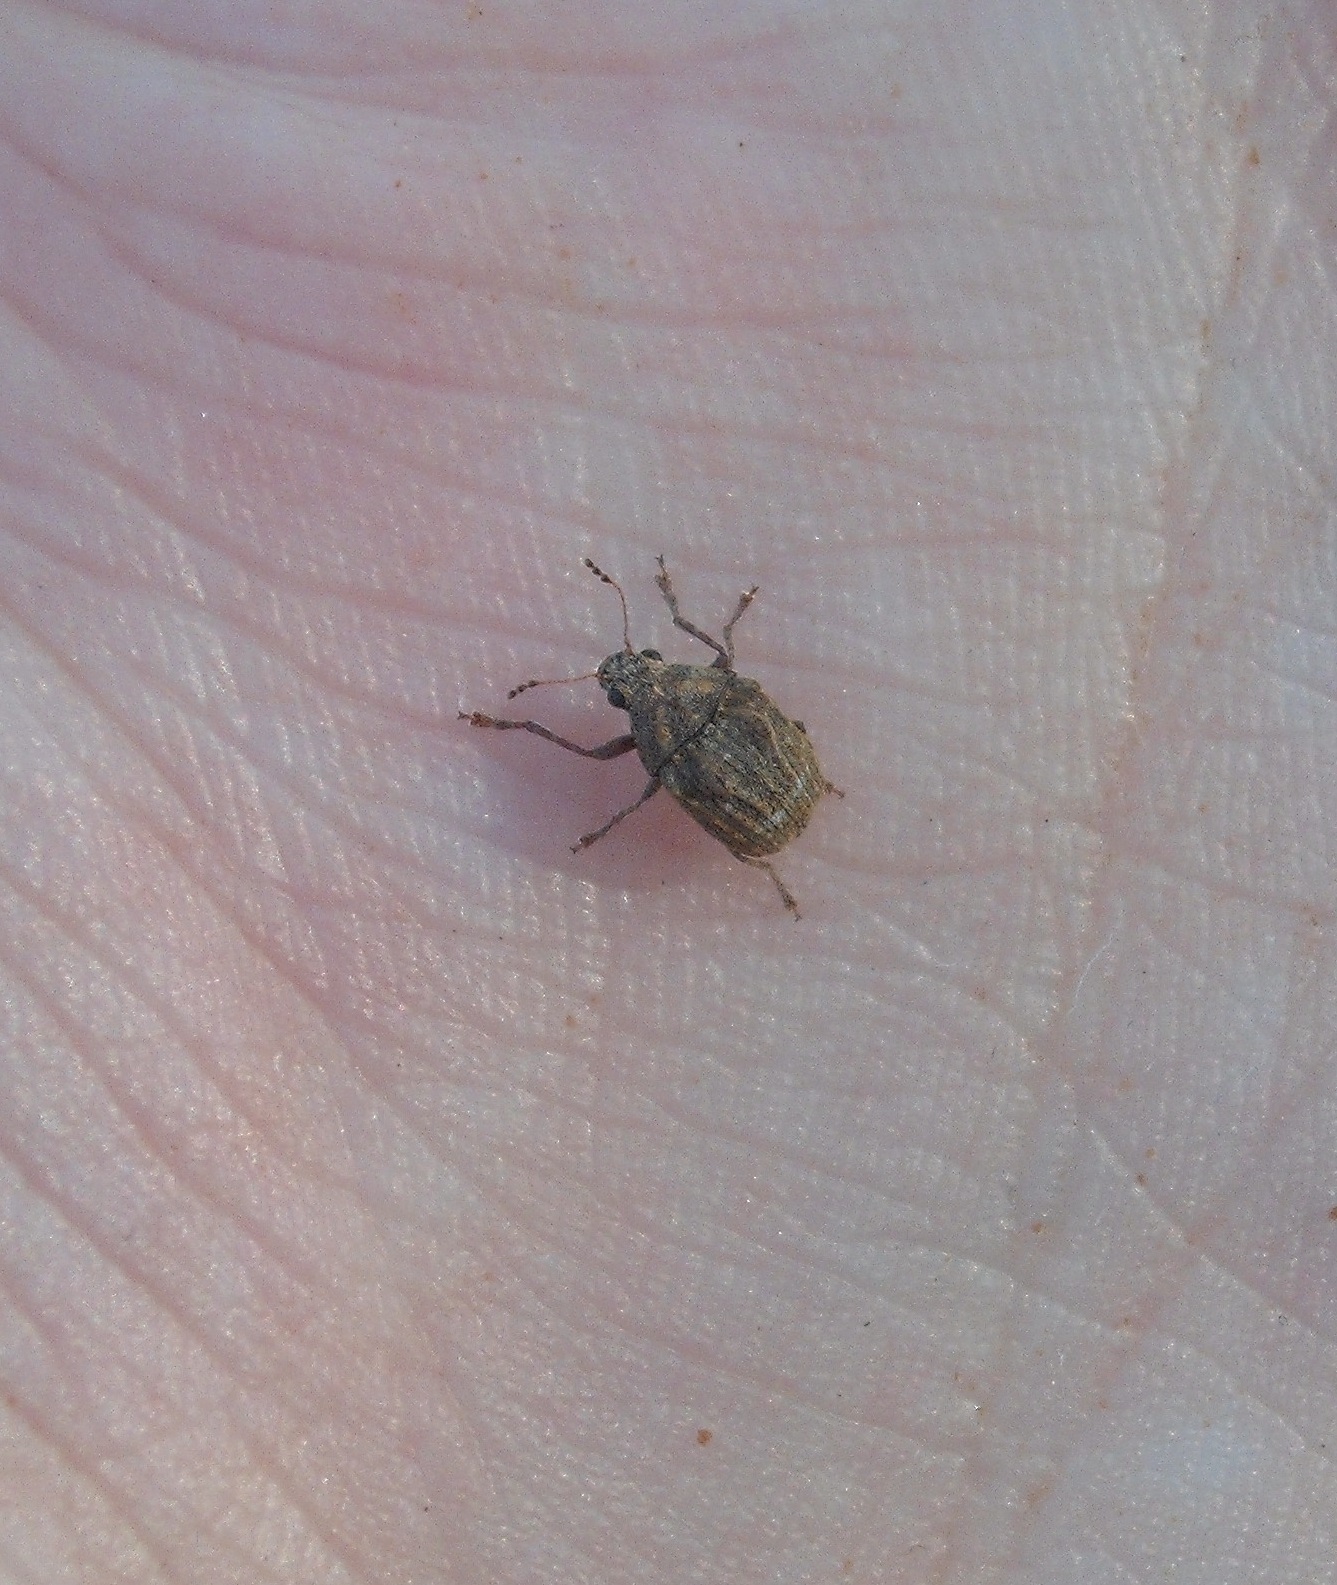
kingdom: Animalia
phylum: Arthropoda
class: Insecta
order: Coleoptera
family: Anthribidae
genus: Araecerus
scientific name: Araecerus
